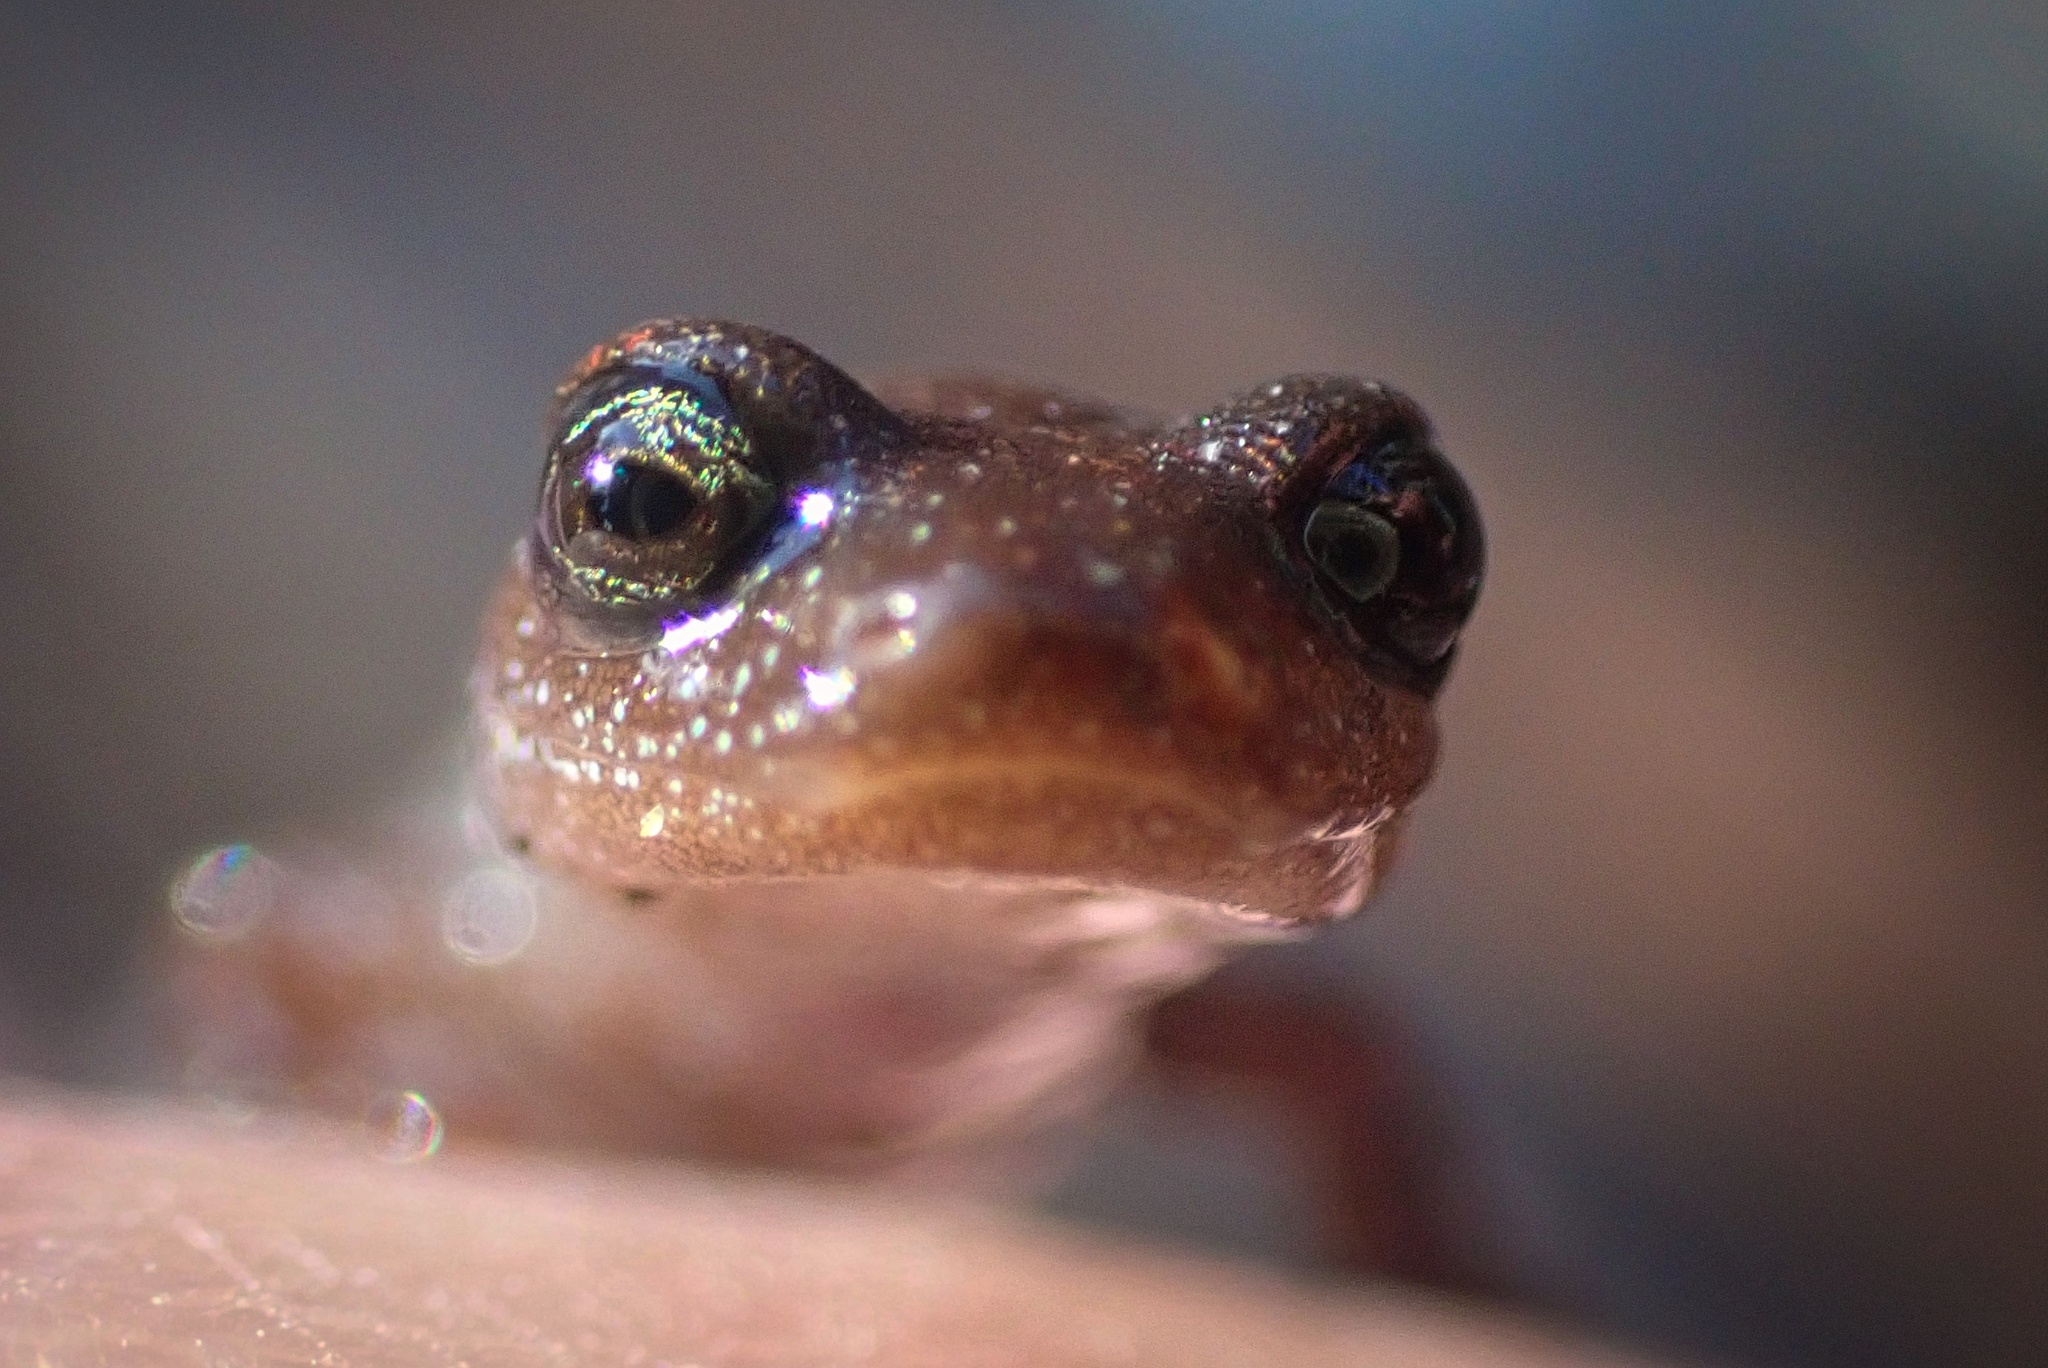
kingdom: Animalia
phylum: Chordata
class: Amphibia
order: Caudata
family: Plethodontidae
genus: Batrachoseps
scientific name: Batrachoseps major
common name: Garden slender salamander
